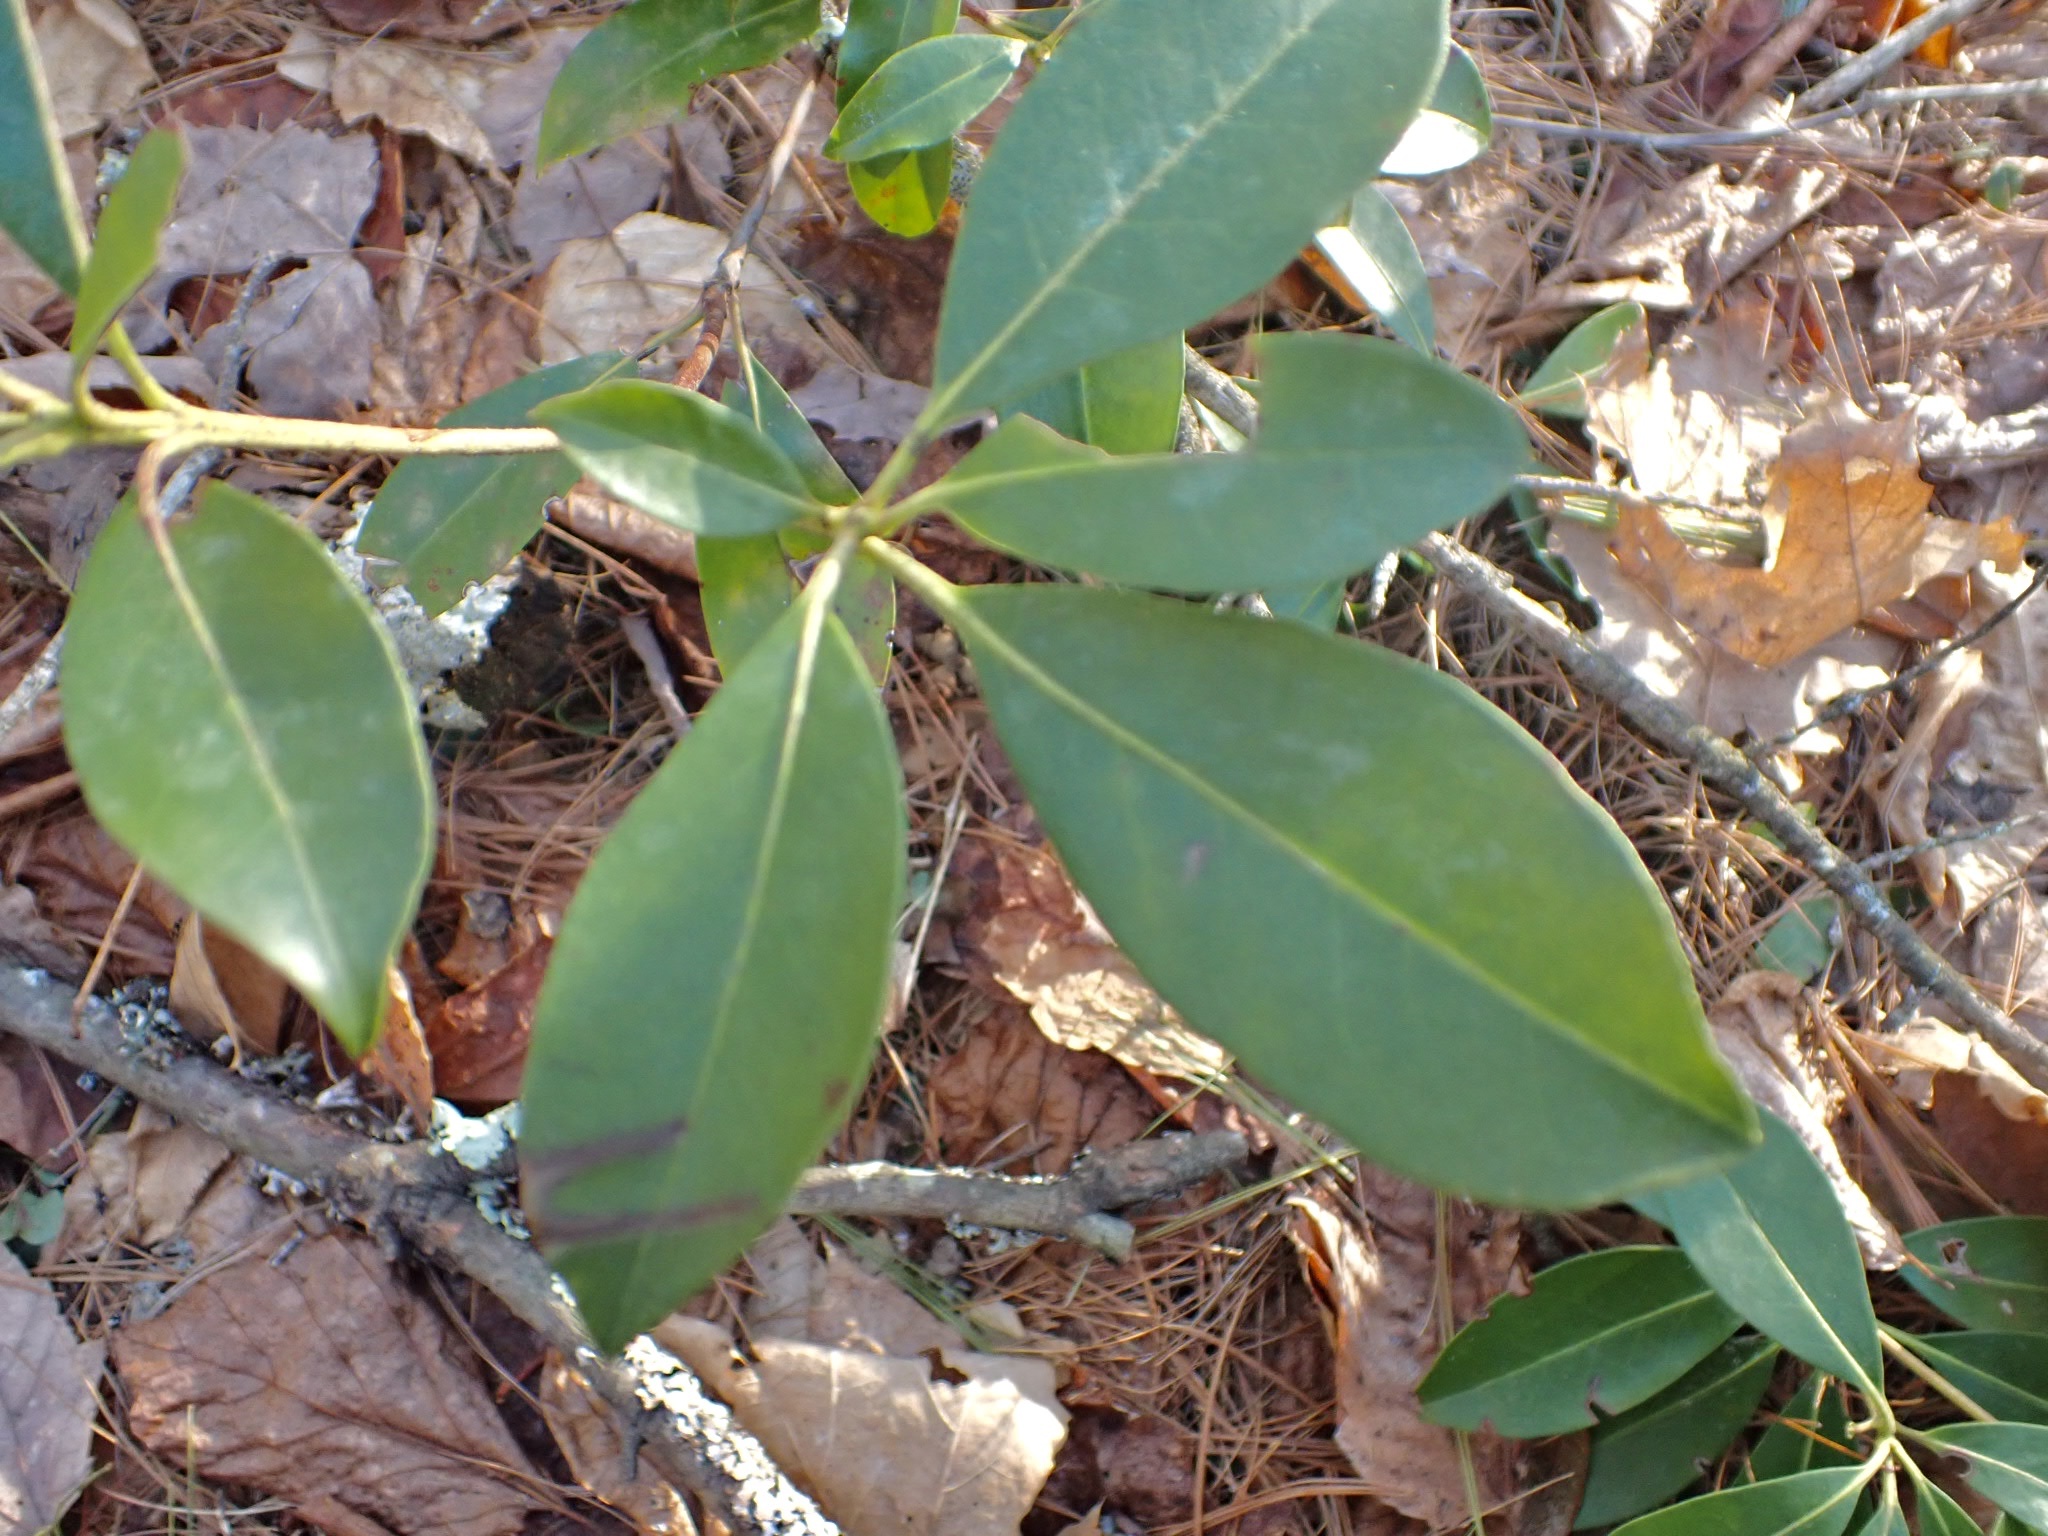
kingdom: Plantae
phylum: Tracheophyta
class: Magnoliopsida
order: Ericales
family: Ericaceae
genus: Kalmia
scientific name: Kalmia latifolia
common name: Mountain-laurel
